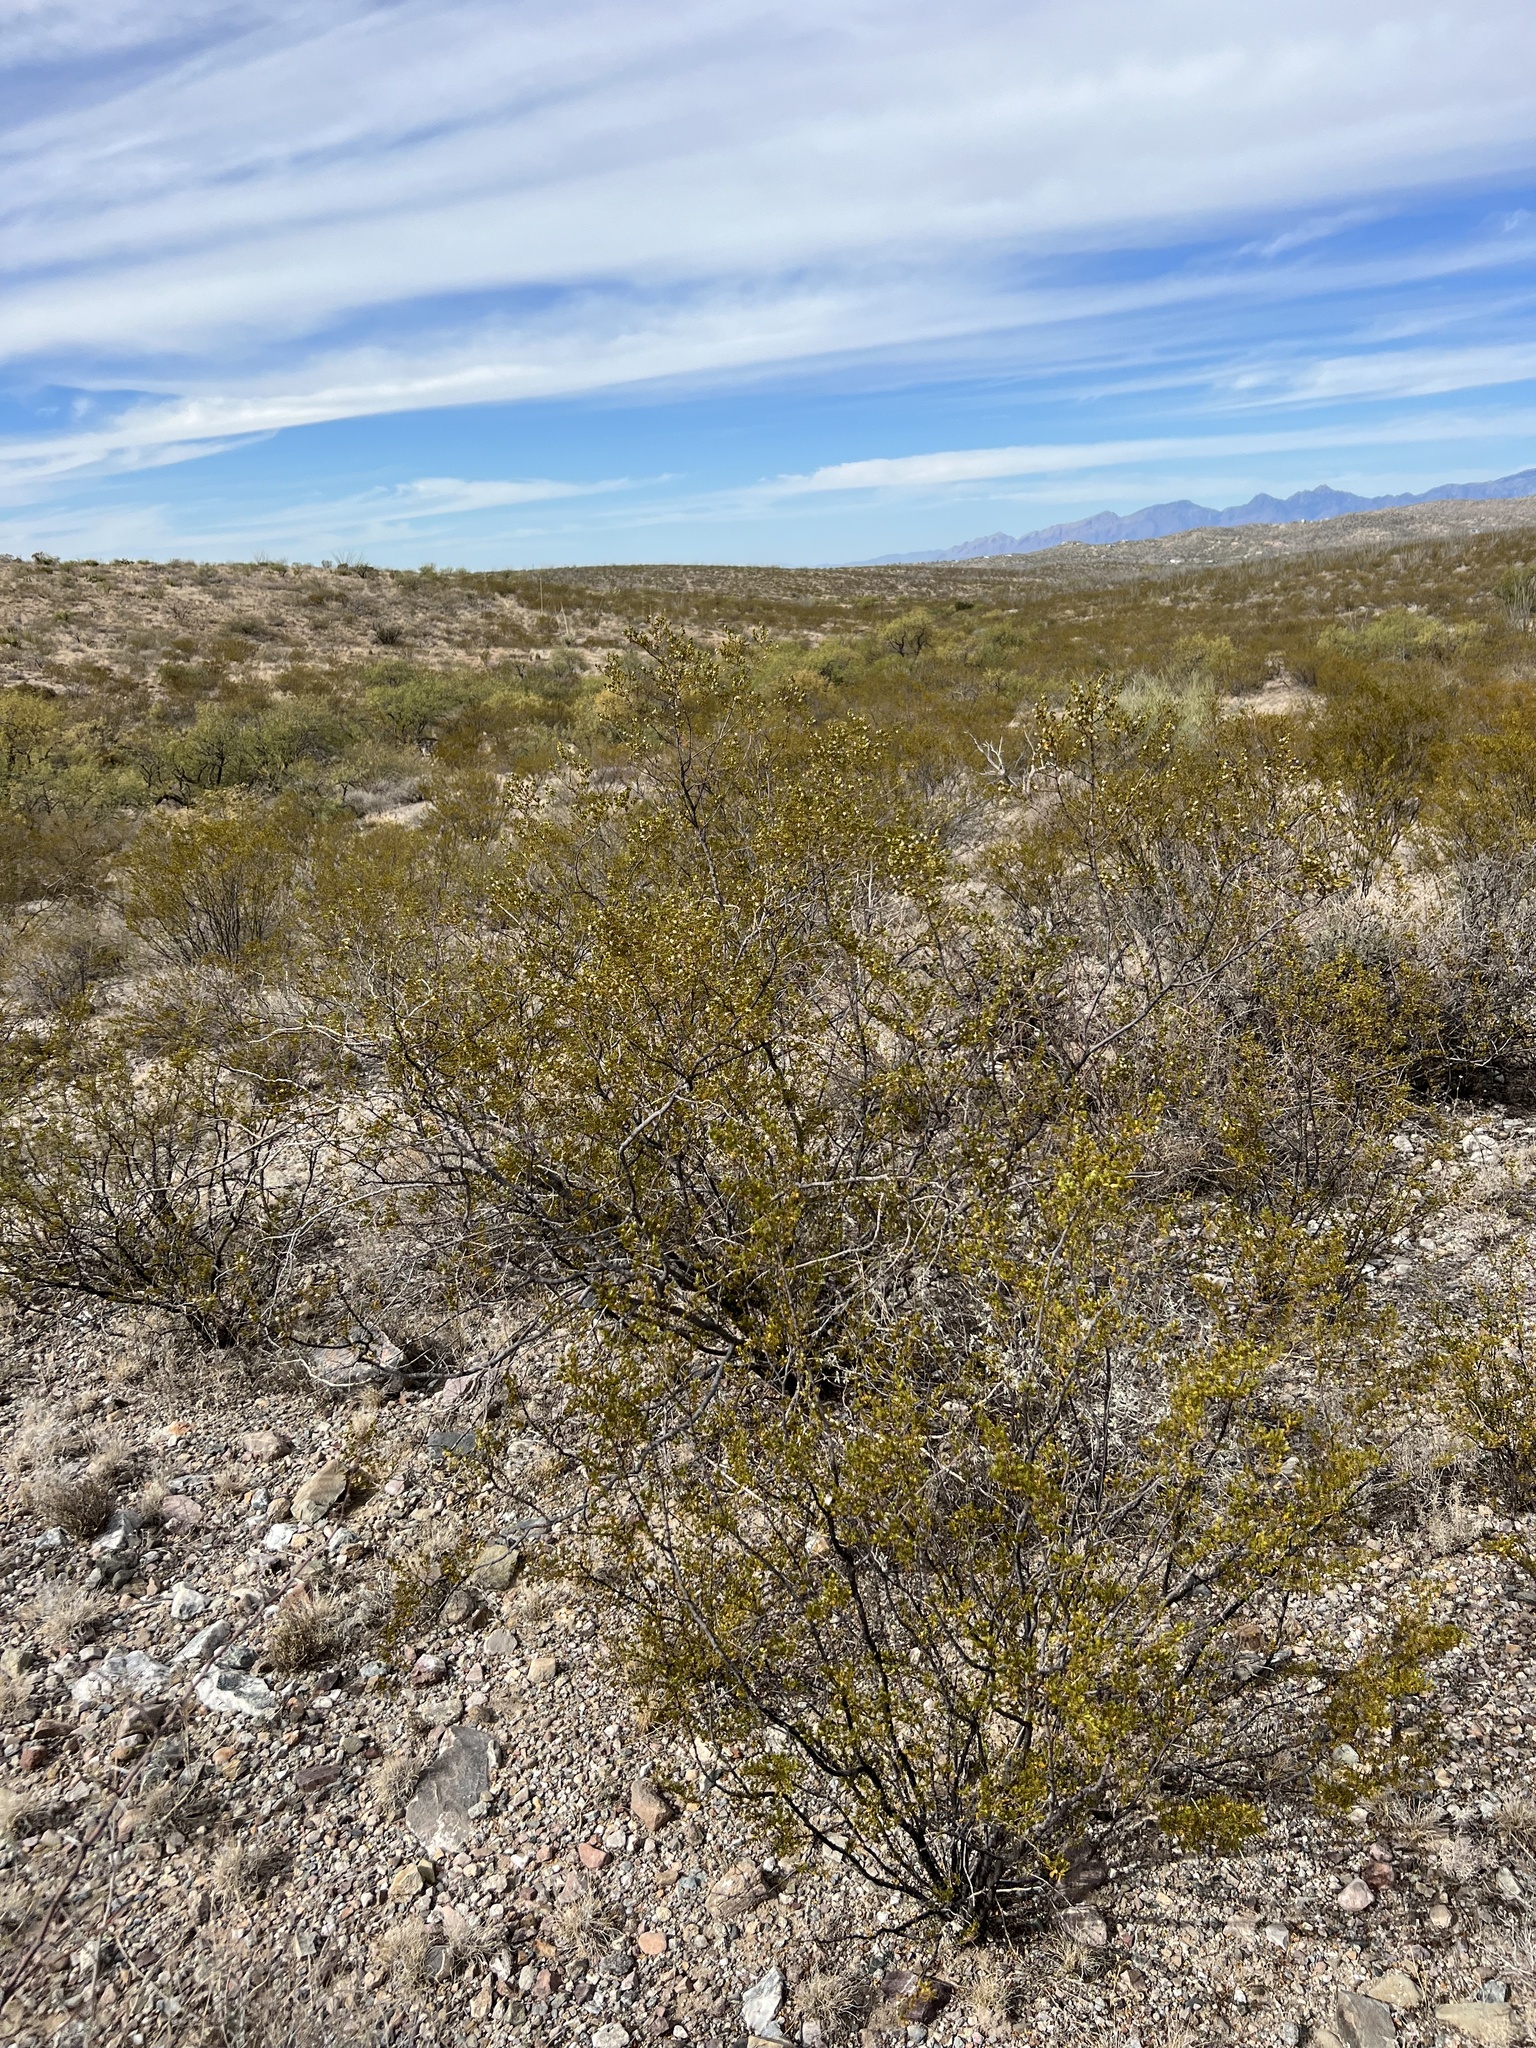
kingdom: Plantae
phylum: Tracheophyta
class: Magnoliopsida
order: Zygophyllales
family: Zygophyllaceae
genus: Larrea
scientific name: Larrea tridentata
